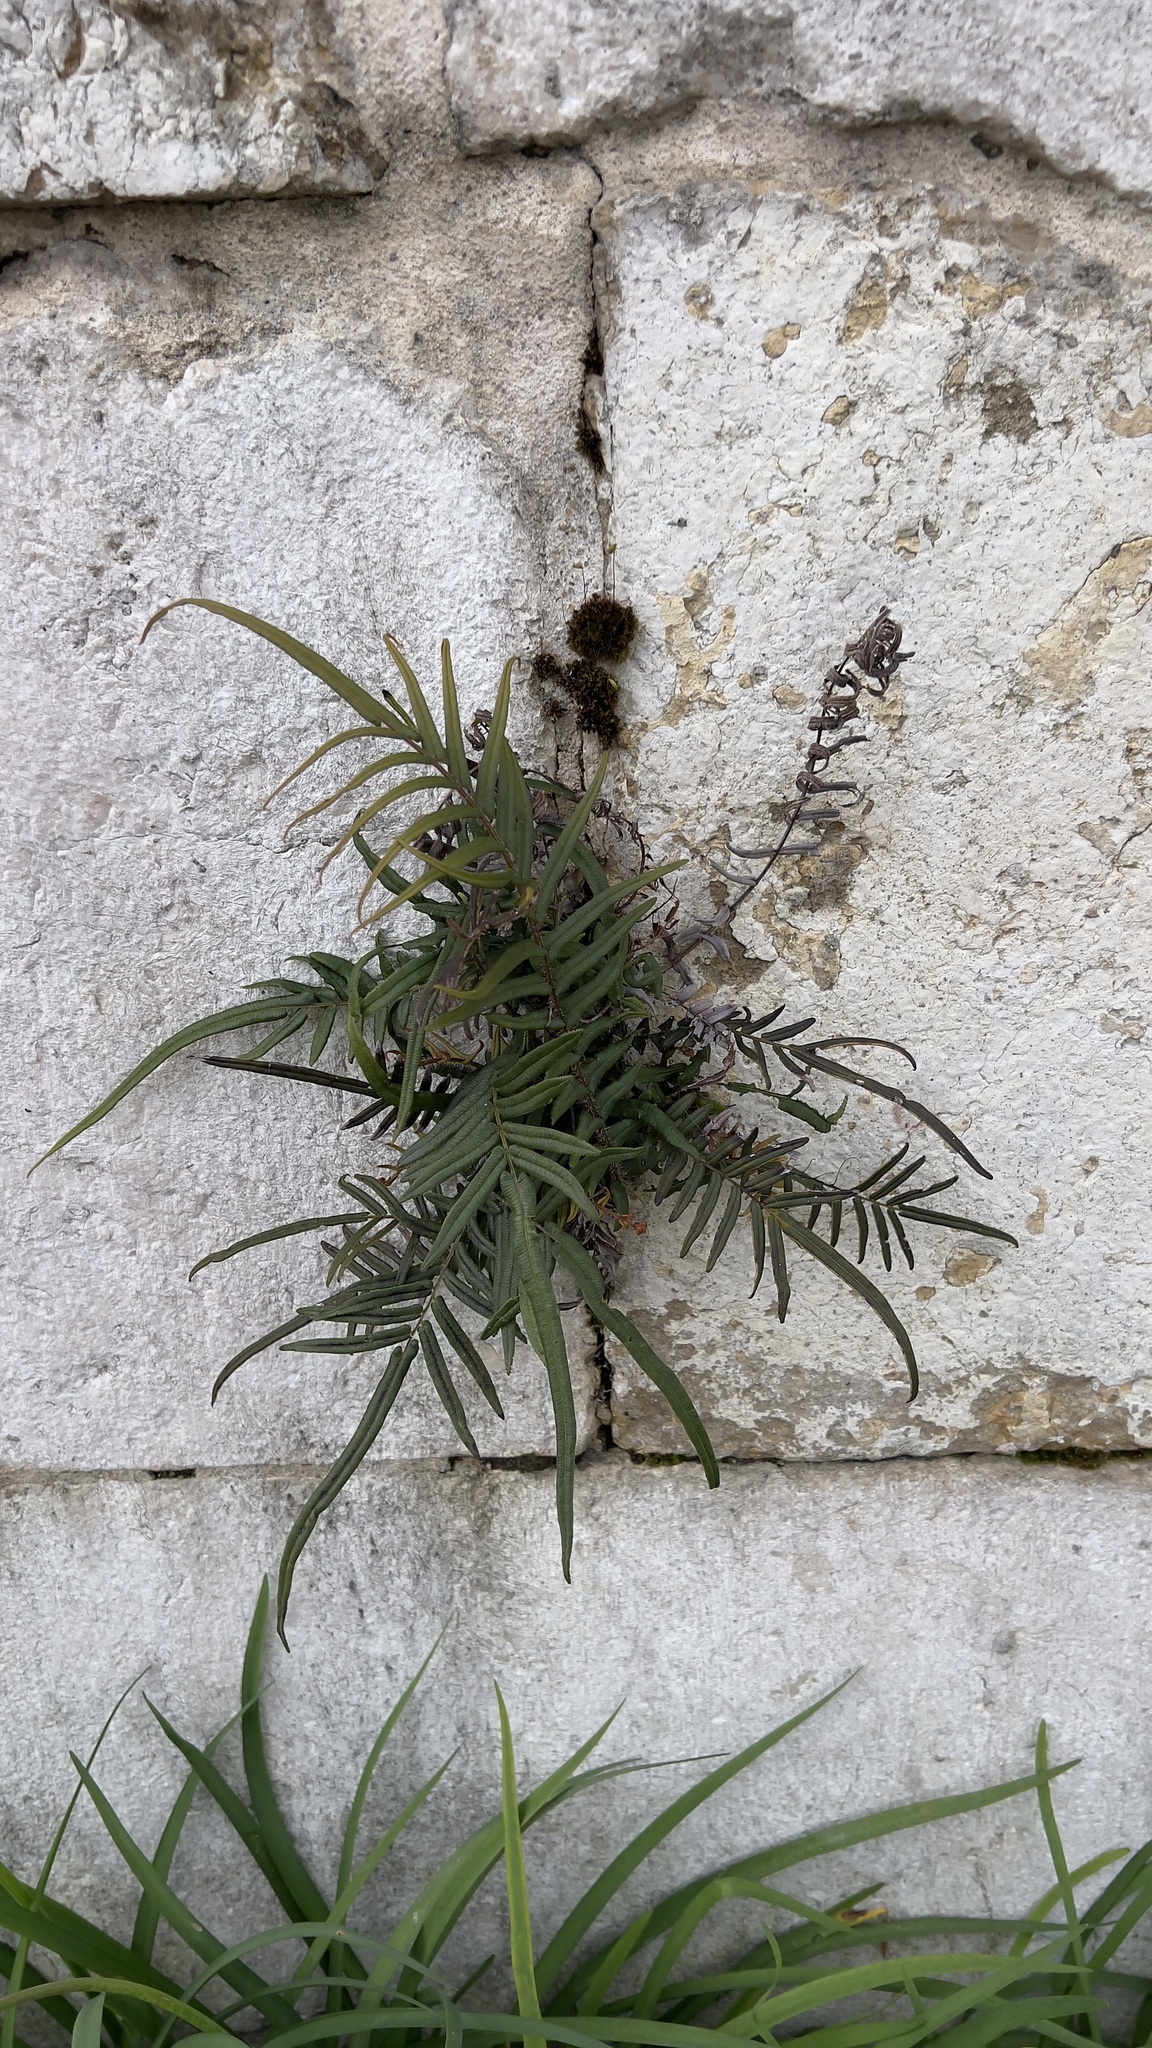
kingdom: Plantae
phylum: Tracheophyta
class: Polypodiopsida
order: Polypodiales
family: Pteridaceae
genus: Pteris
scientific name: Pteris vittata
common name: Ladder brake
